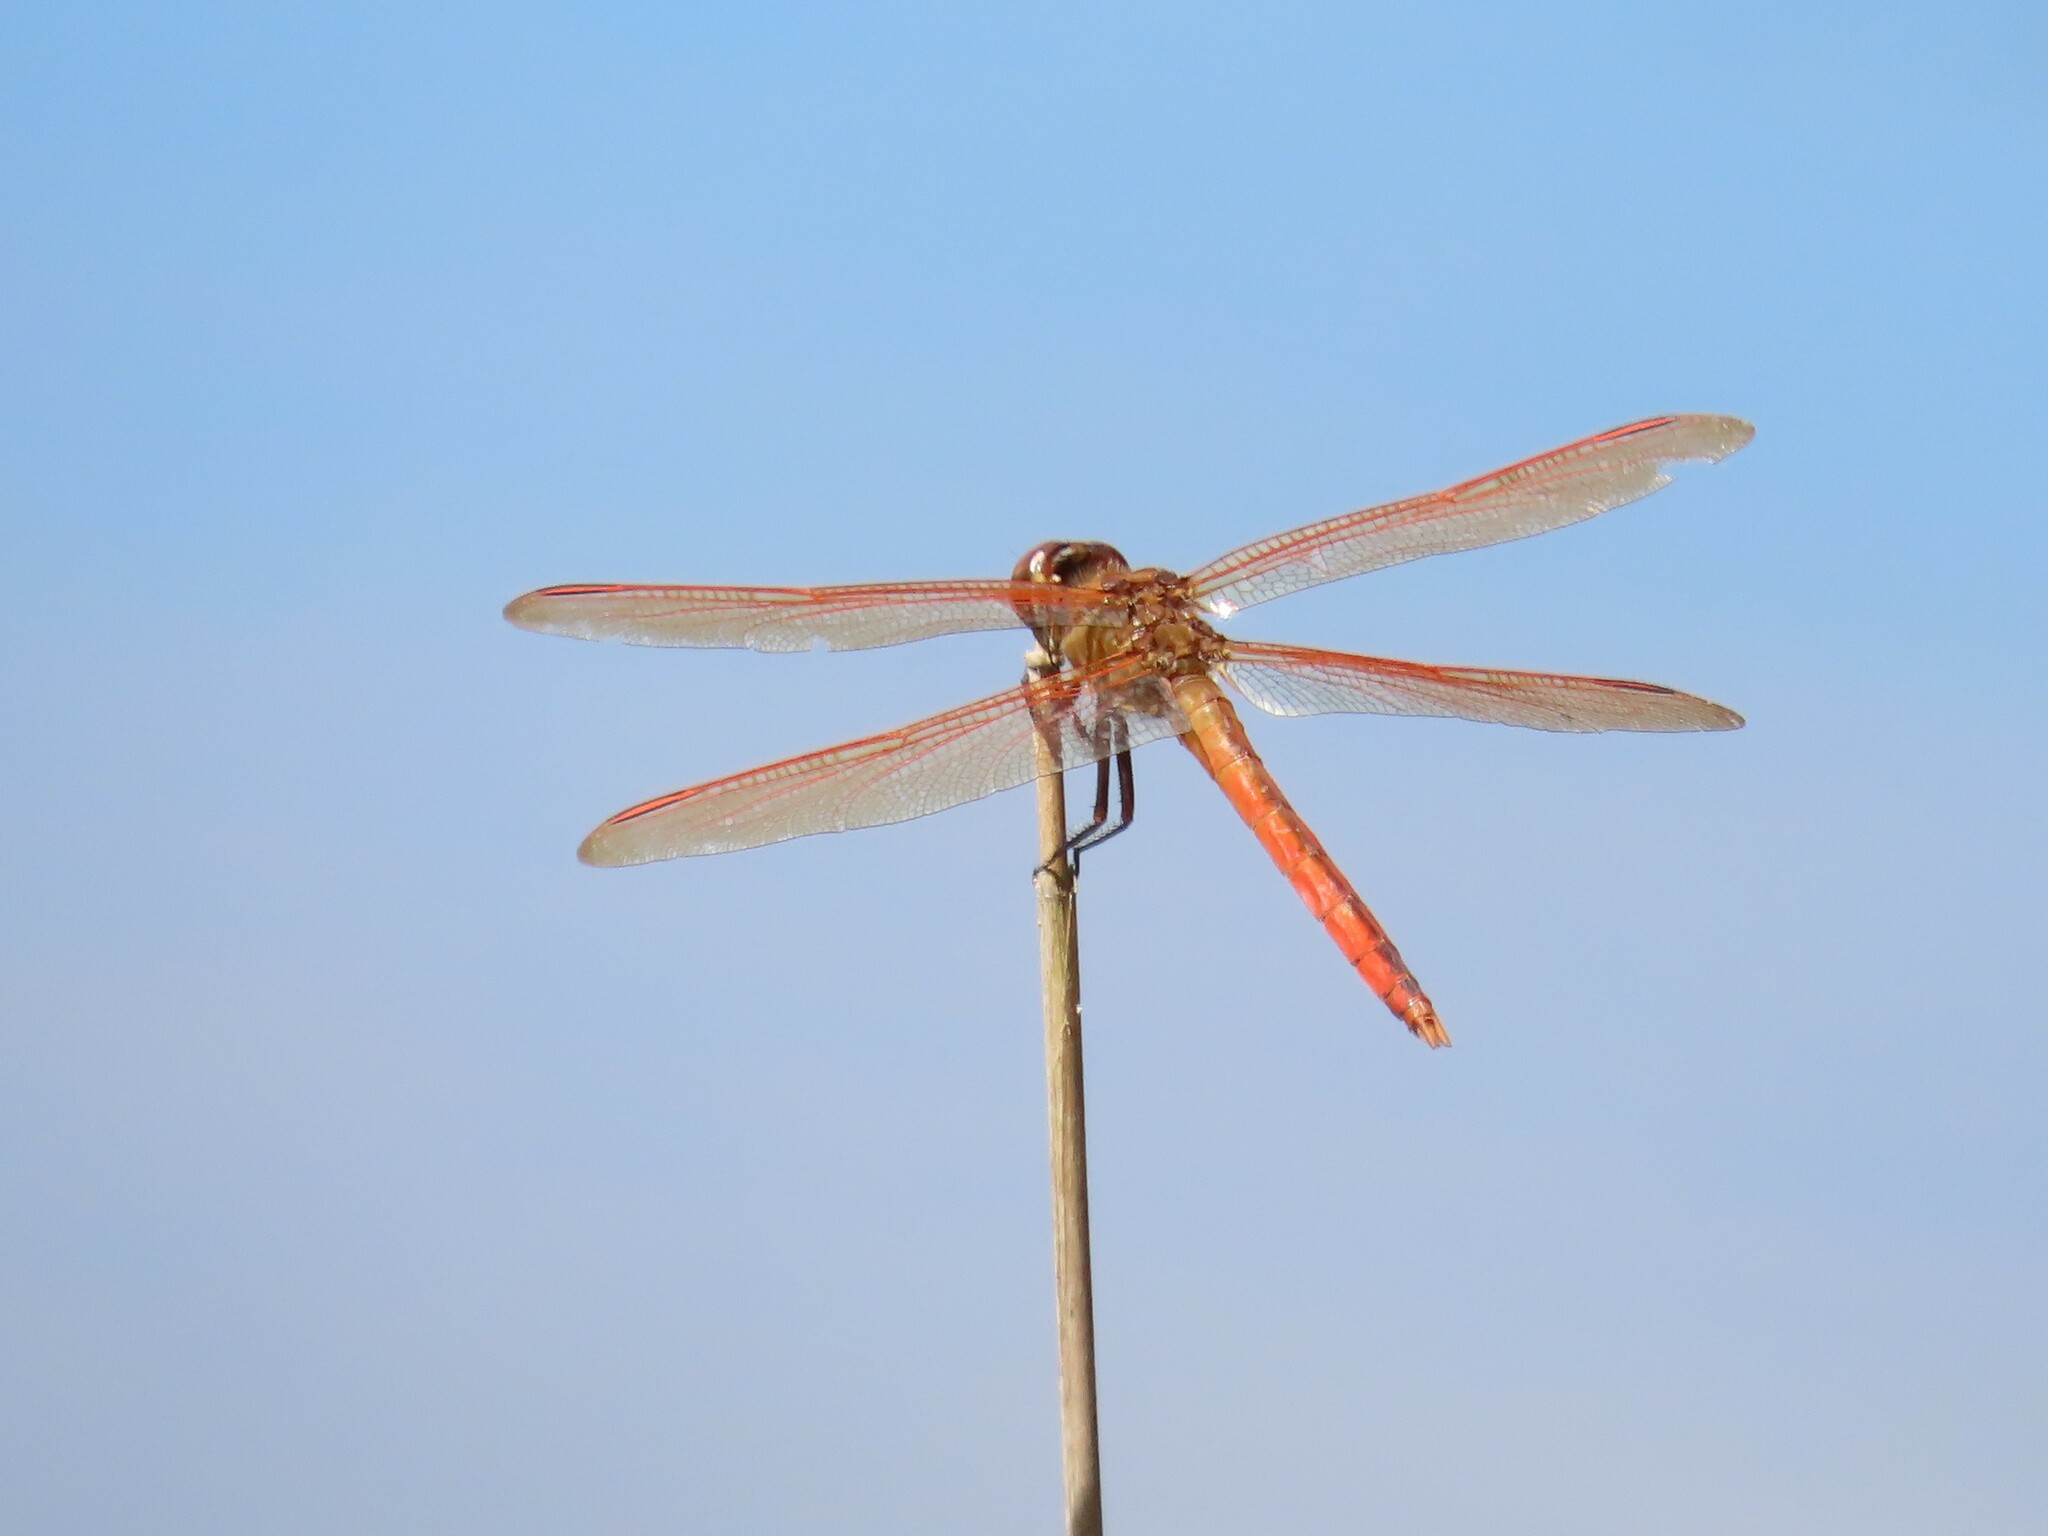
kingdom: Animalia
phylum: Arthropoda
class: Insecta
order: Odonata
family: Libellulidae
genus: Libellula
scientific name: Libellula auripennis
